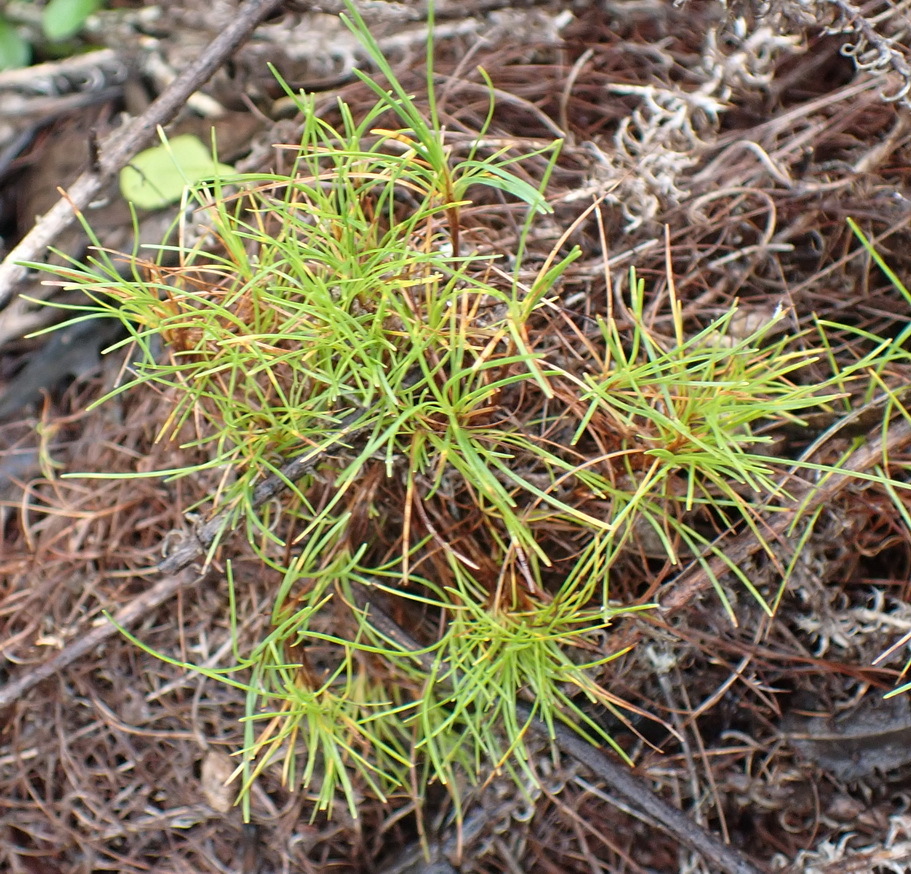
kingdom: Plantae
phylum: Tracheophyta
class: Liliopsida
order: Poales
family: Cyperaceae
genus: Ficinia
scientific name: Ficinia ramosissima
